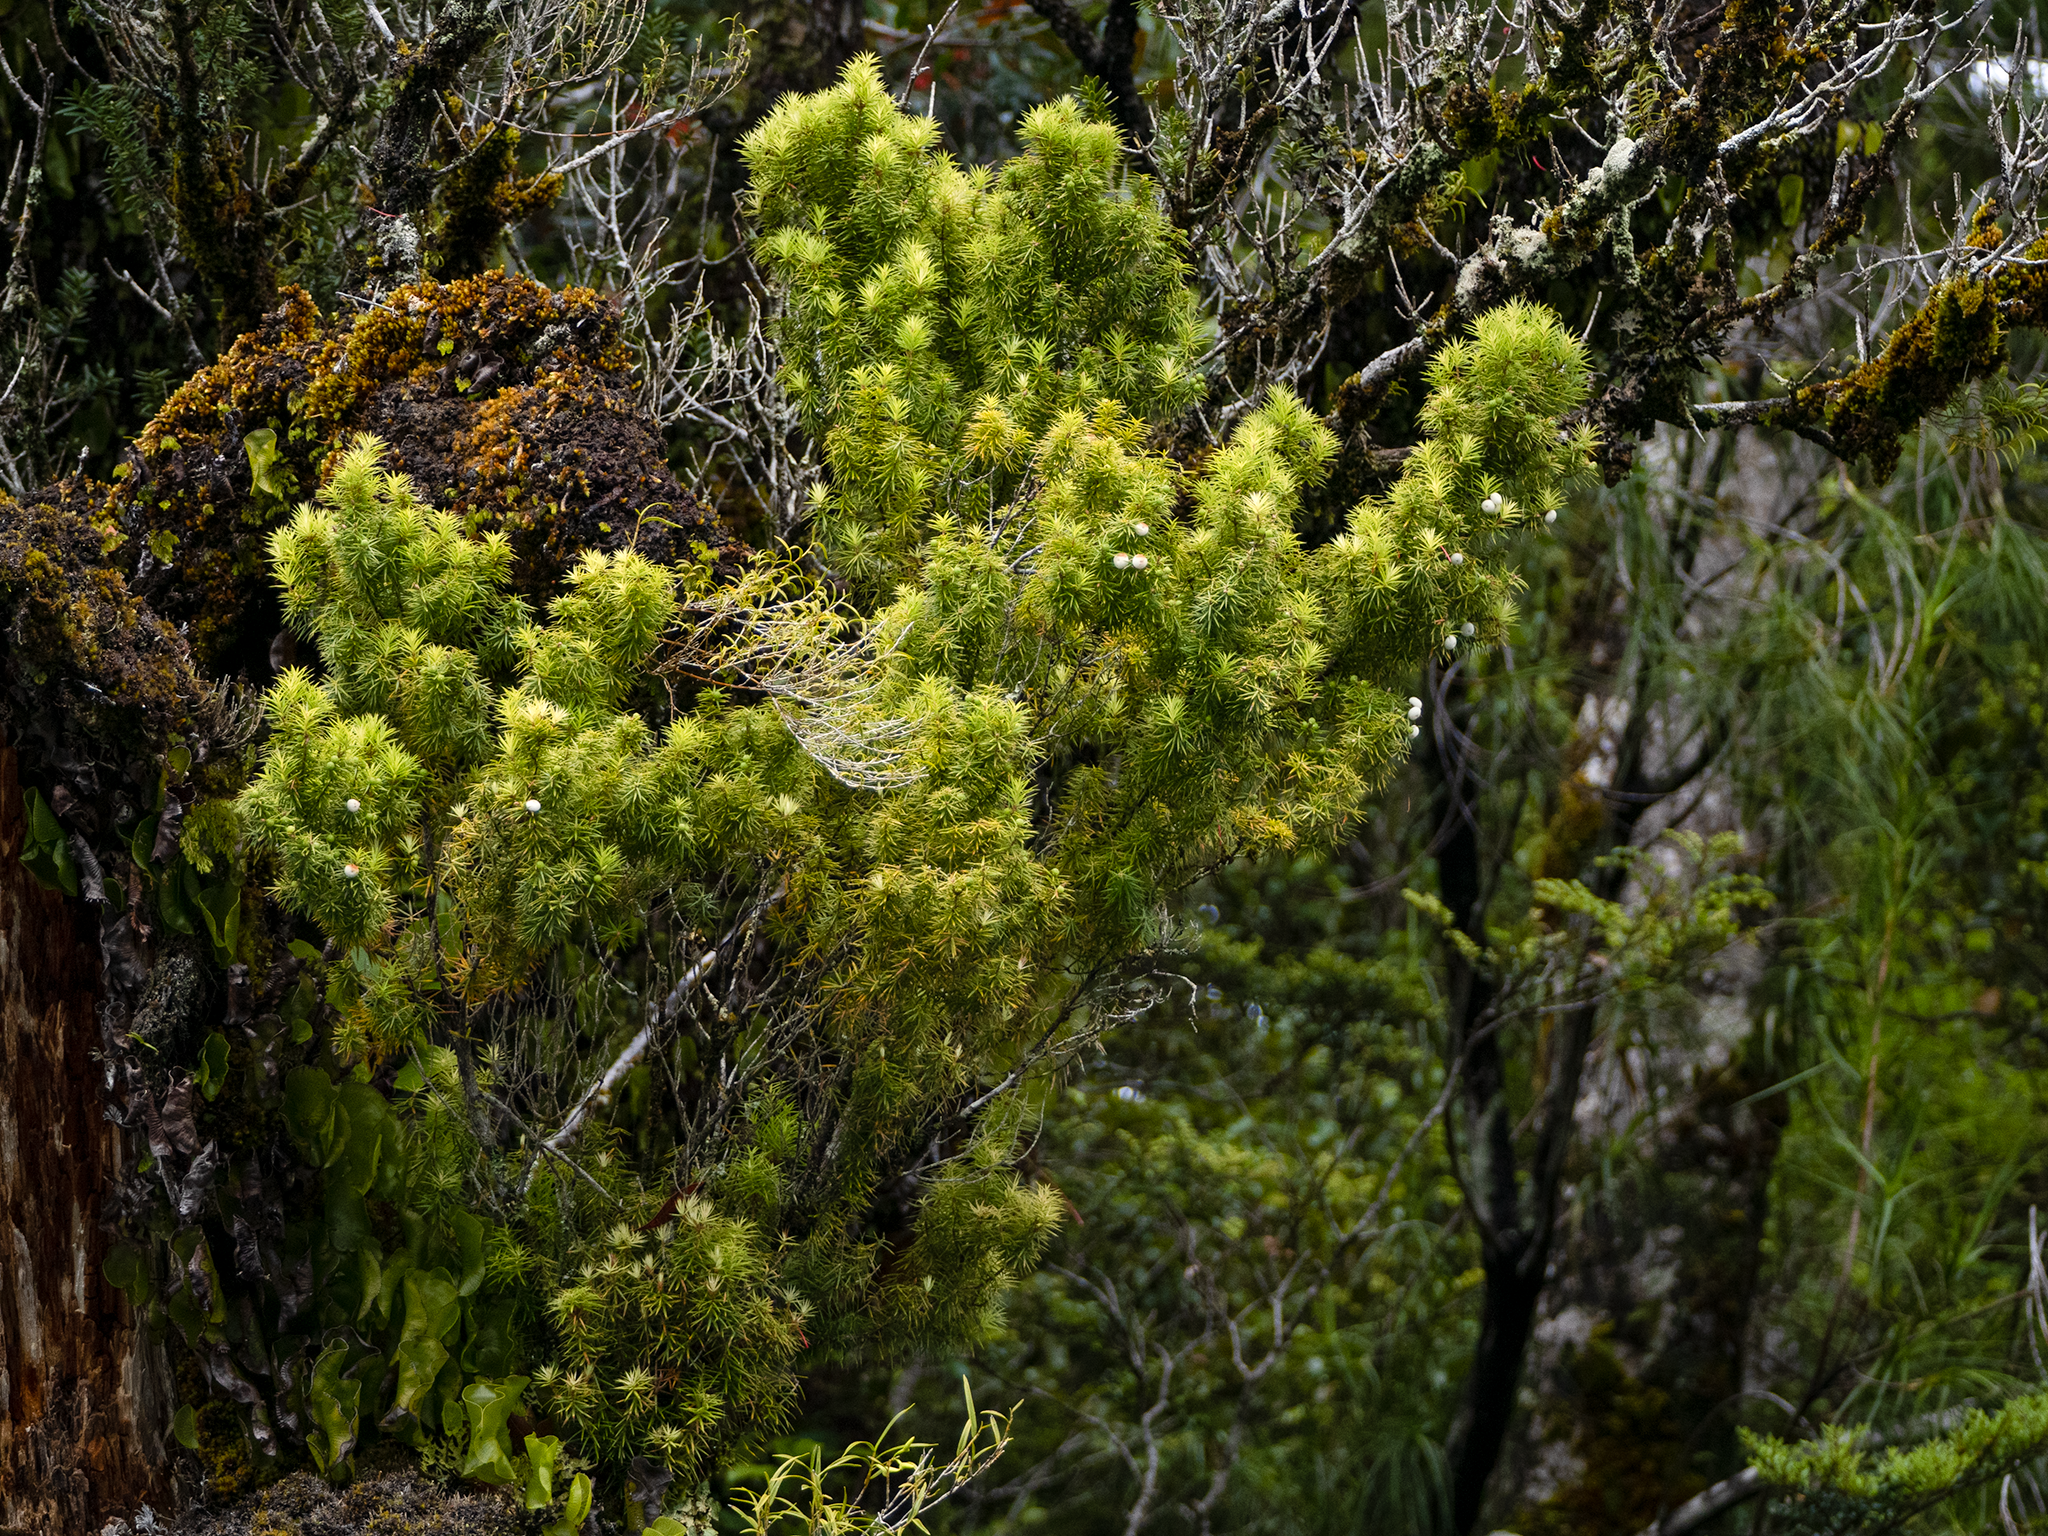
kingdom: Plantae
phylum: Tracheophyta
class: Magnoliopsida
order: Ericales
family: Ericaceae
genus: Leptecophylla
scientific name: Leptecophylla juniperina
